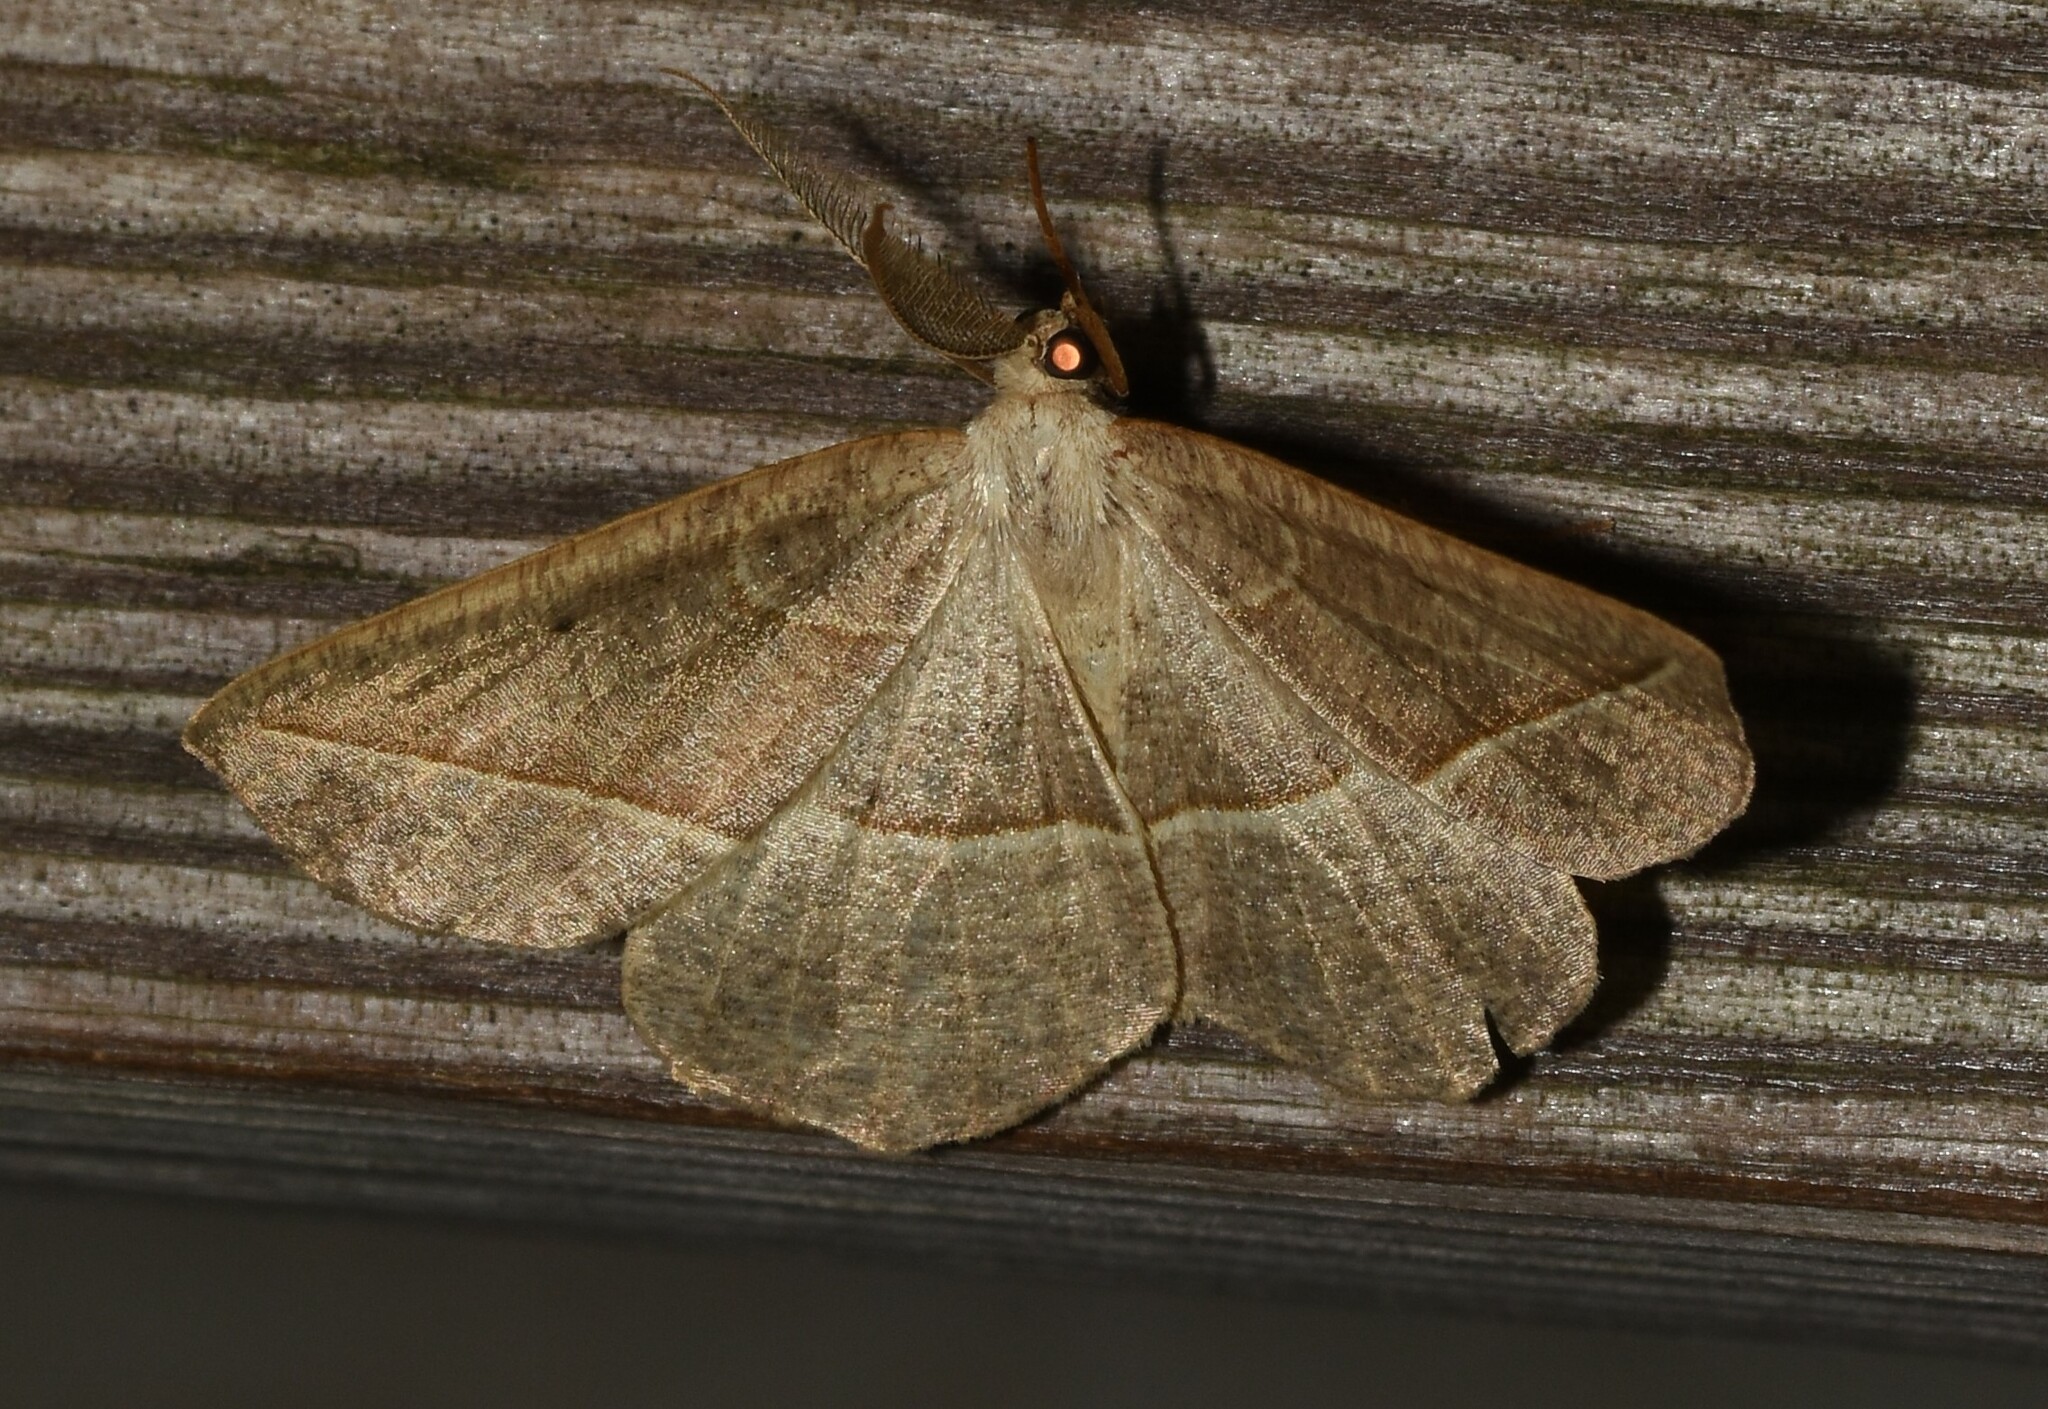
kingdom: Animalia
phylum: Arthropoda
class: Insecta
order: Lepidoptera
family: Geometridae
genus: Eusarca
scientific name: Eusarca confusaria
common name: Confused eusarca
